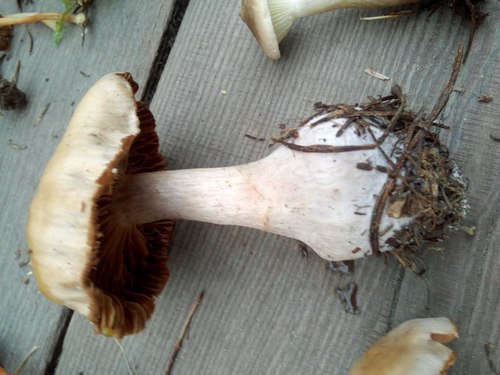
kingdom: Fungi
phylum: Basidiomycota
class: Agaricomycetes
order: Agaricales
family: Cortinariaceae
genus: Cortinarius
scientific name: Cortinarius
